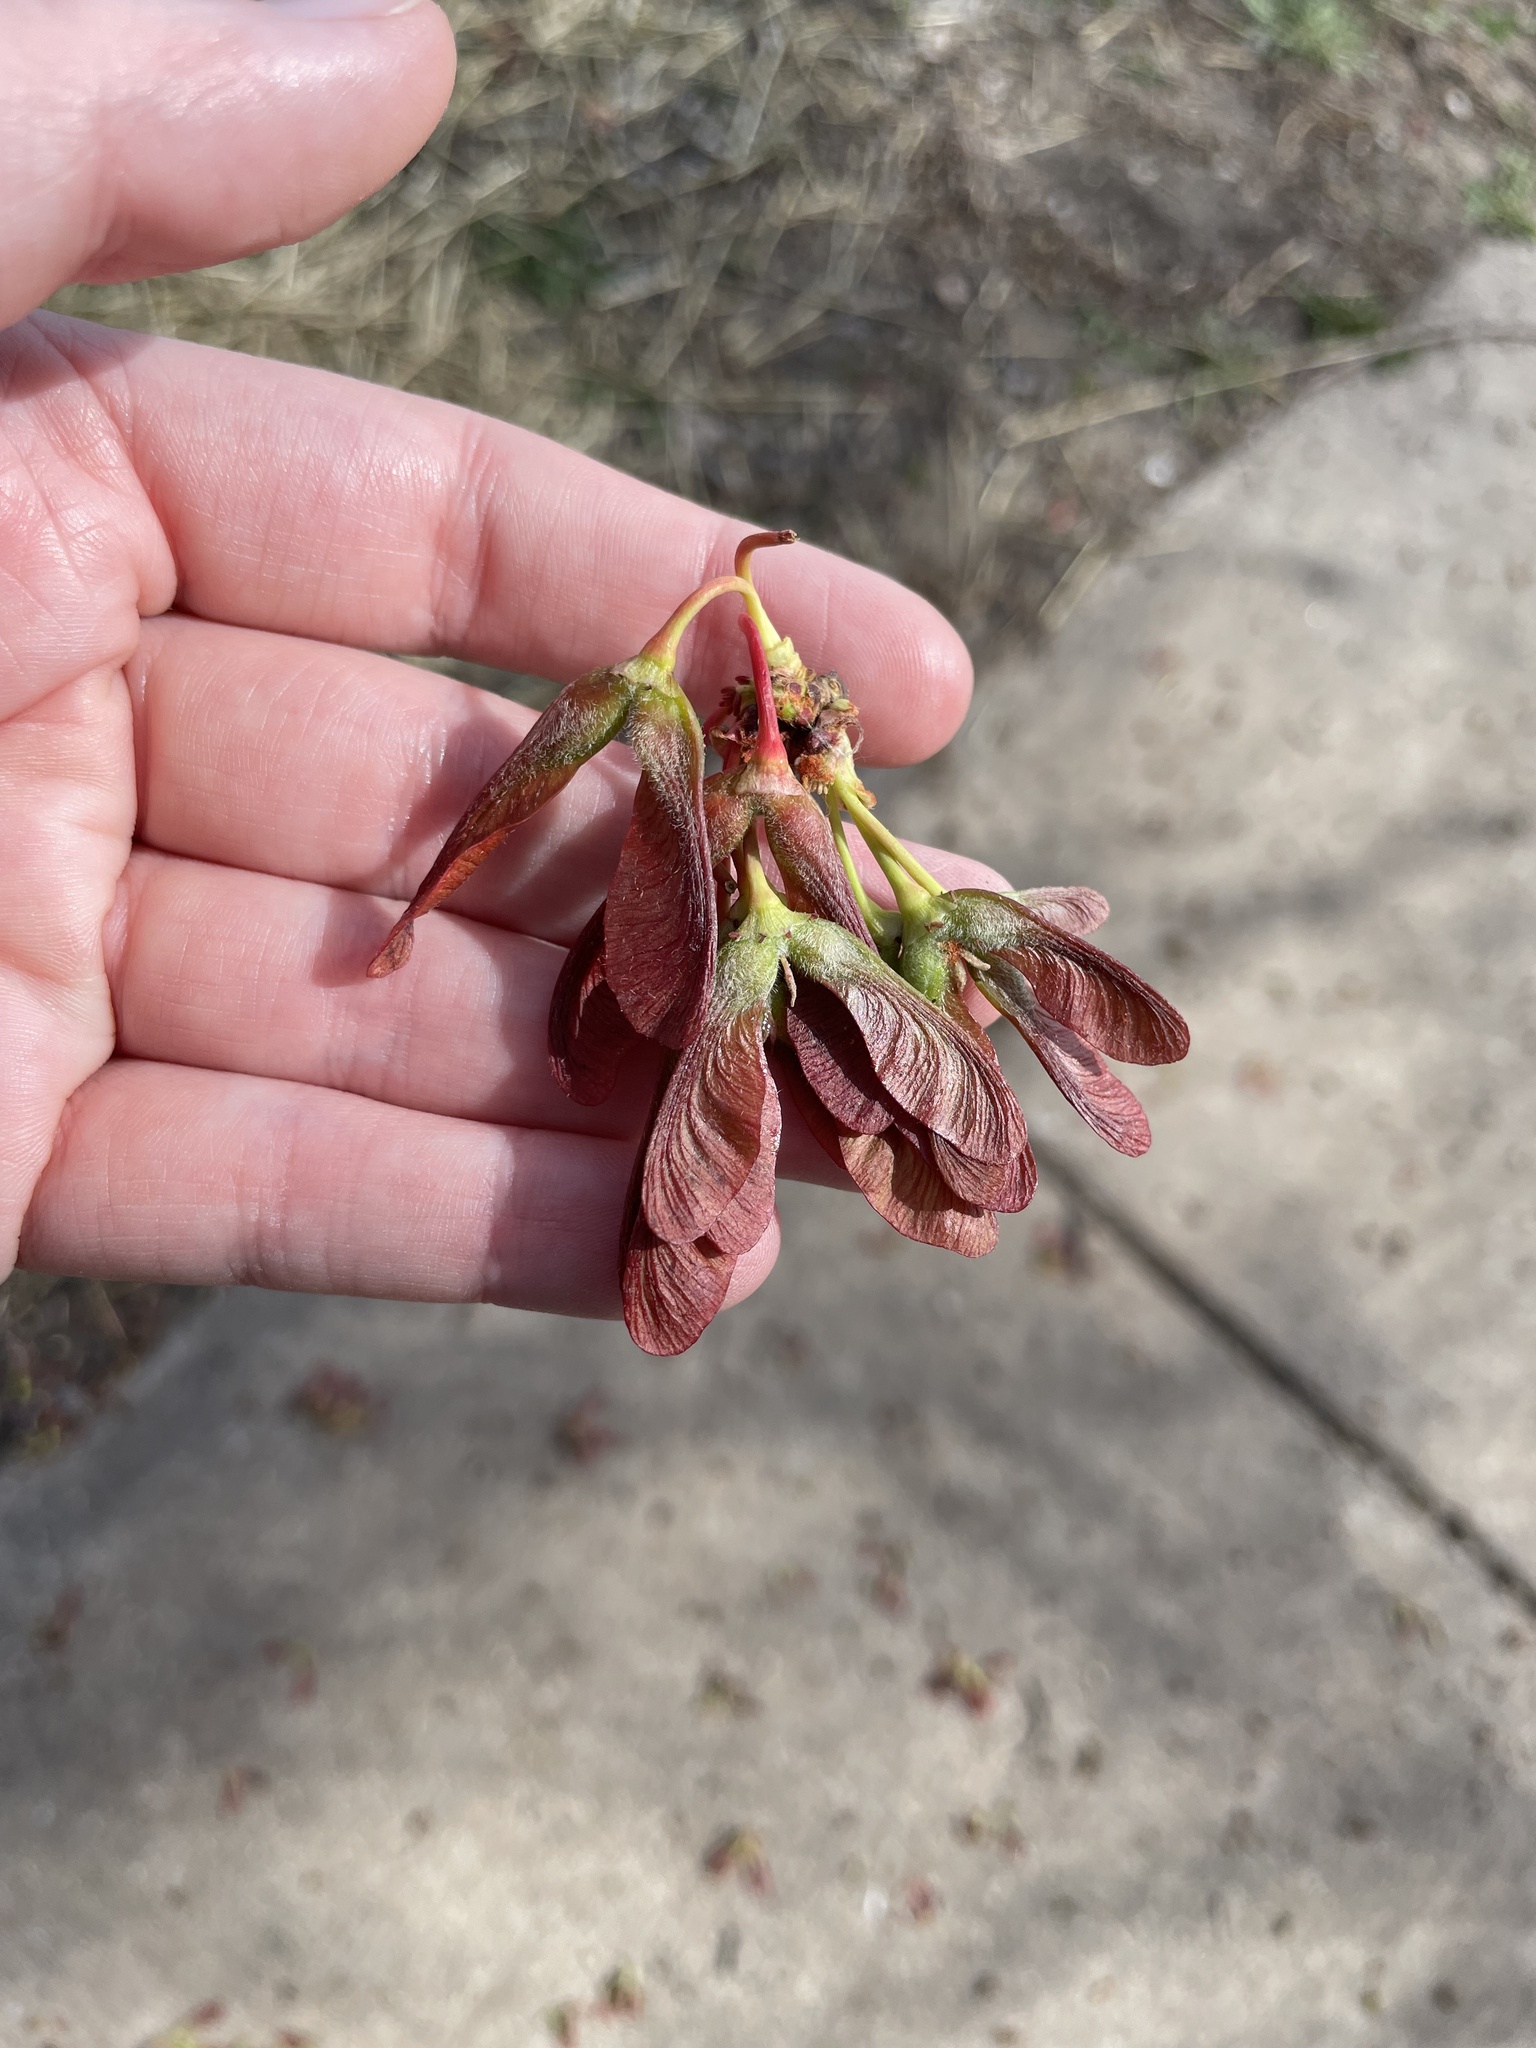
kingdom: Plantae
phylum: Tracheophyta
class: Magnoliopsida
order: Sapindales
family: Sapindaceae
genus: Acer
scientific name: Acer rubrum
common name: Red maple
